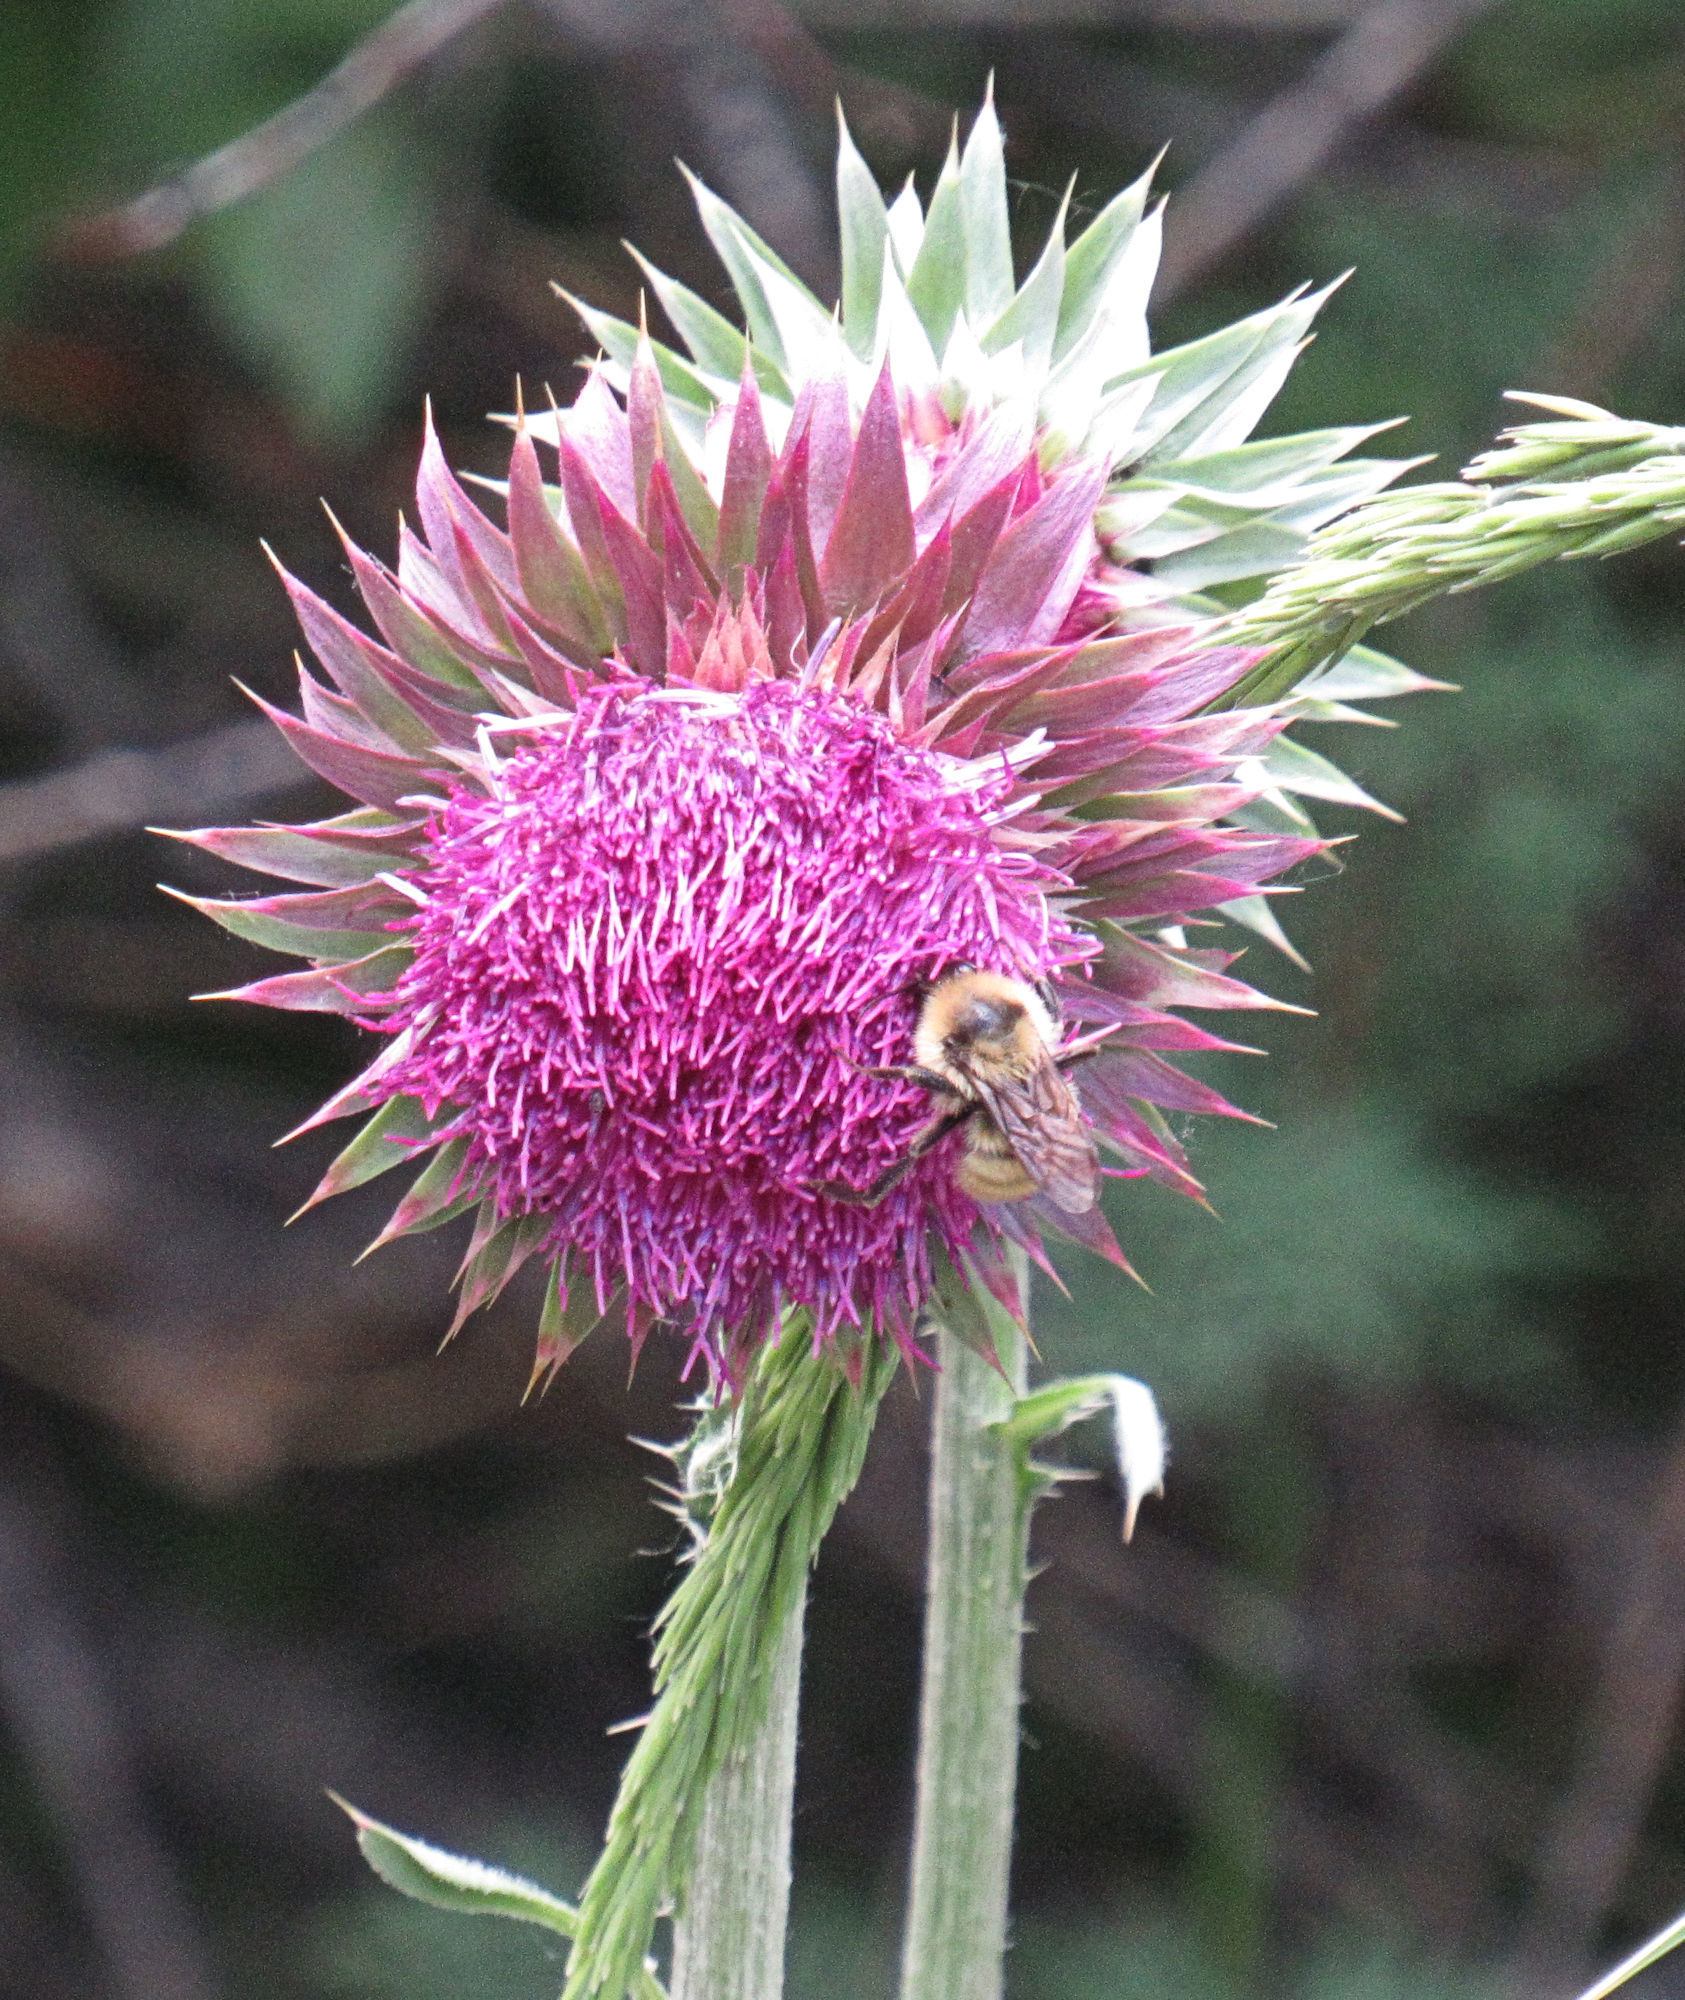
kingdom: Plantae
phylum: Tracheophyta
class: Magnoliopsida
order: Asterales
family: Asteraceae
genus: Carduus
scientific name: Carduus nutans
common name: Musk thistle
